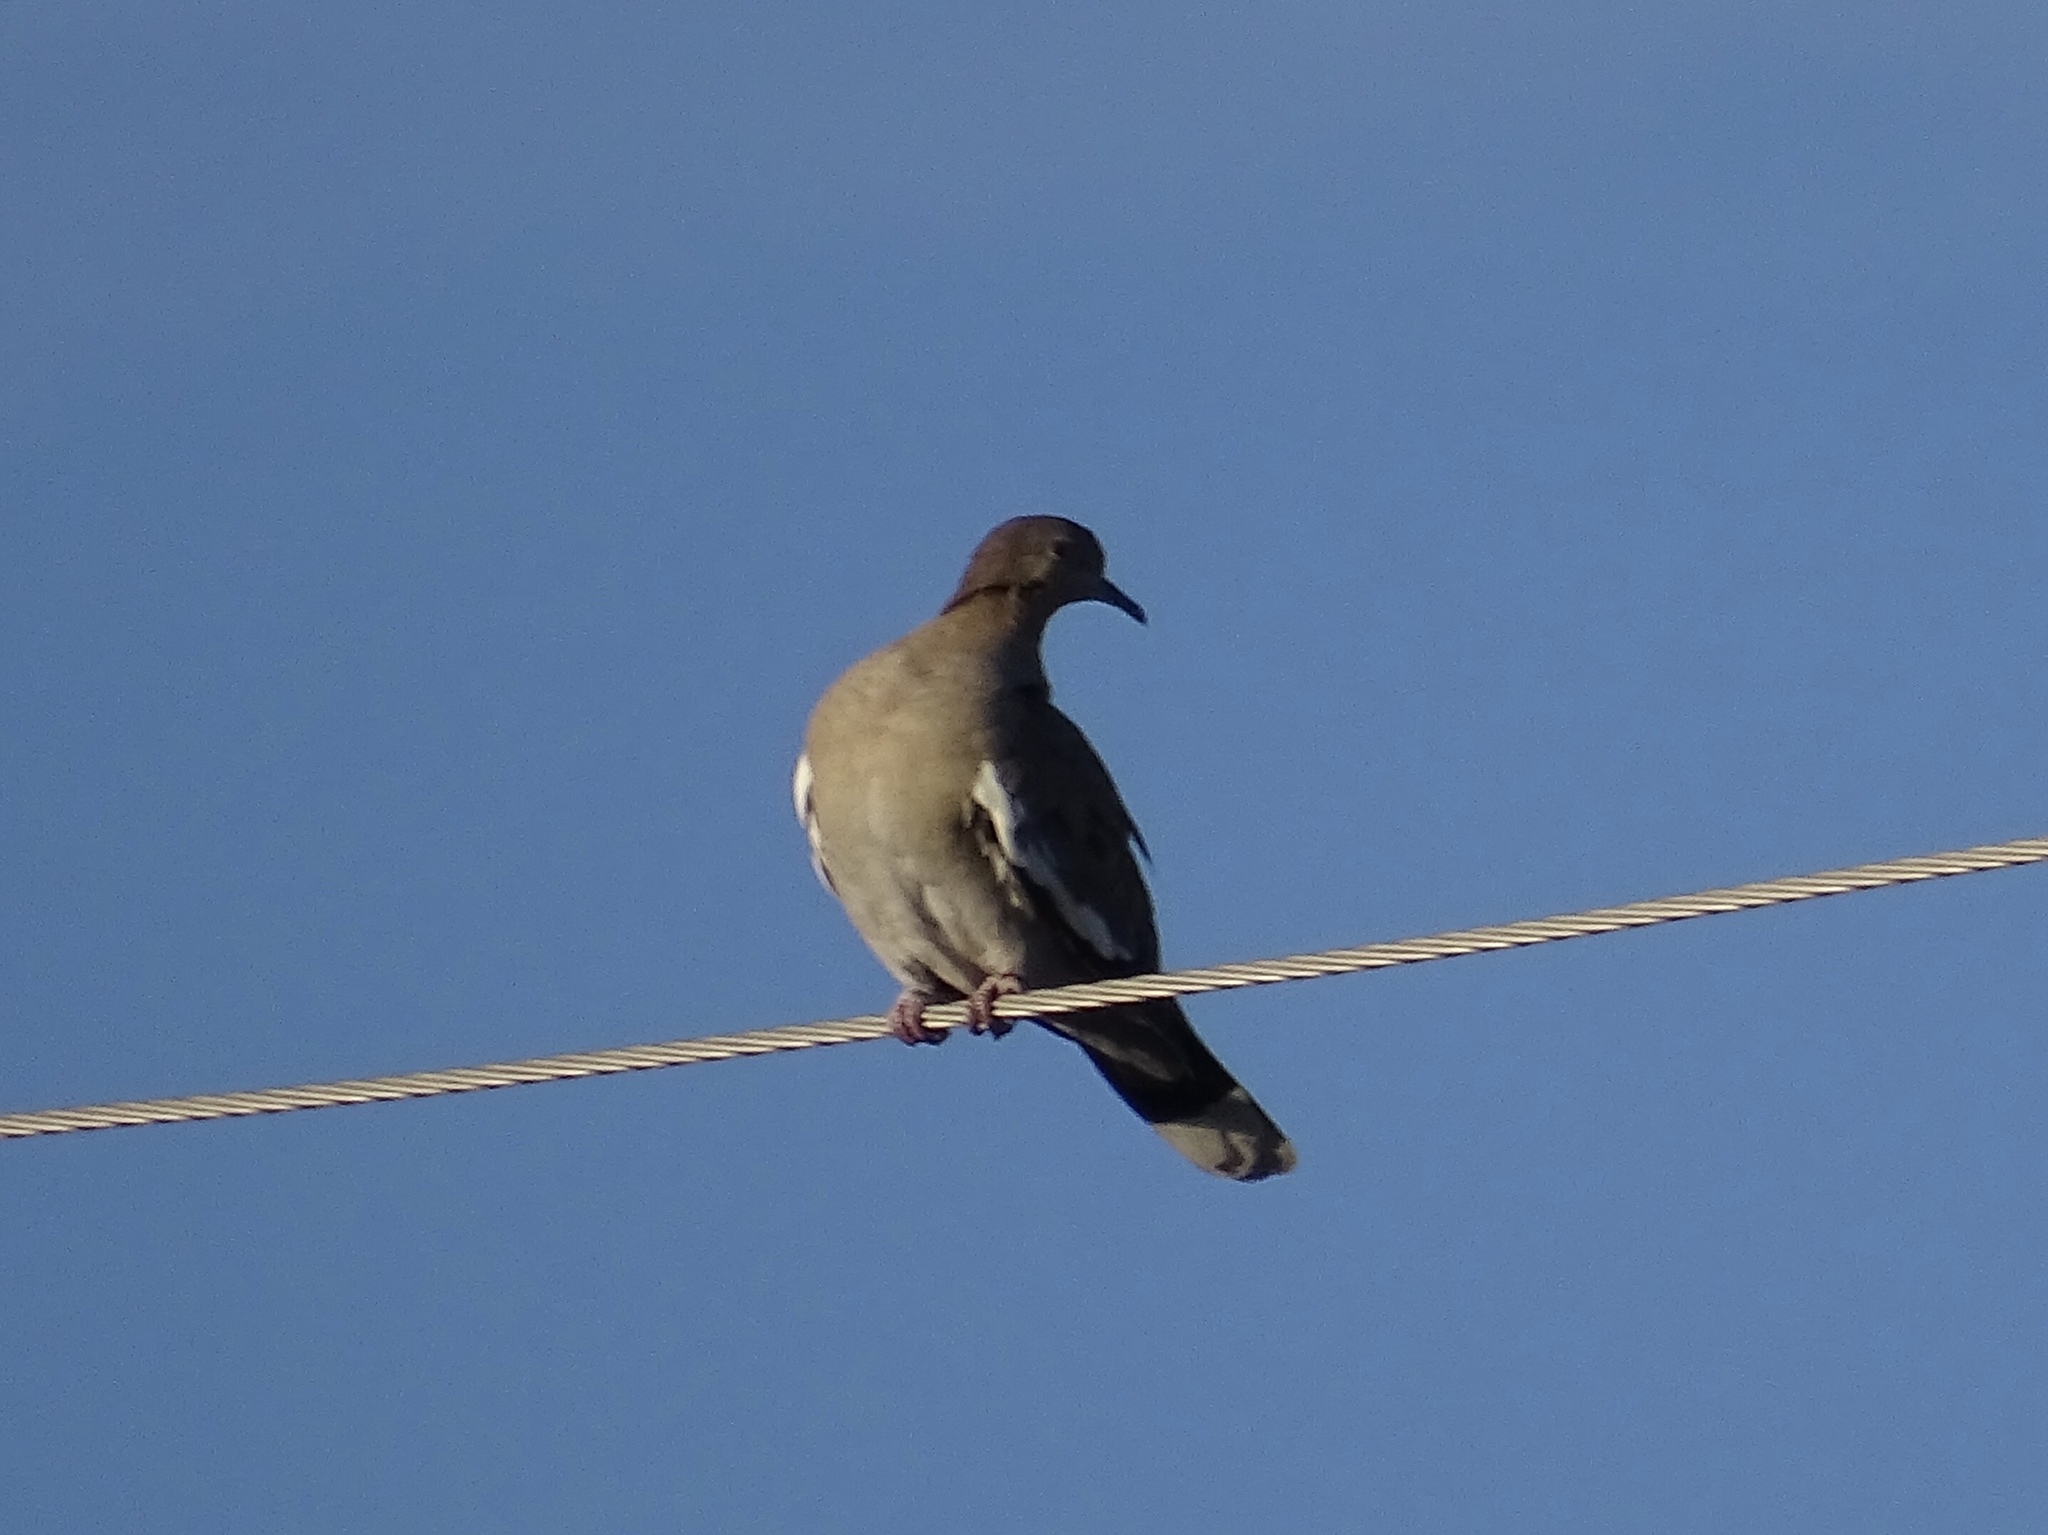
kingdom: Animalia
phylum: Chordata
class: Aves
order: Columbiformes
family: Columbidae
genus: Zenaida
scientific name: Zenaida asiatica
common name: White-winged dove
